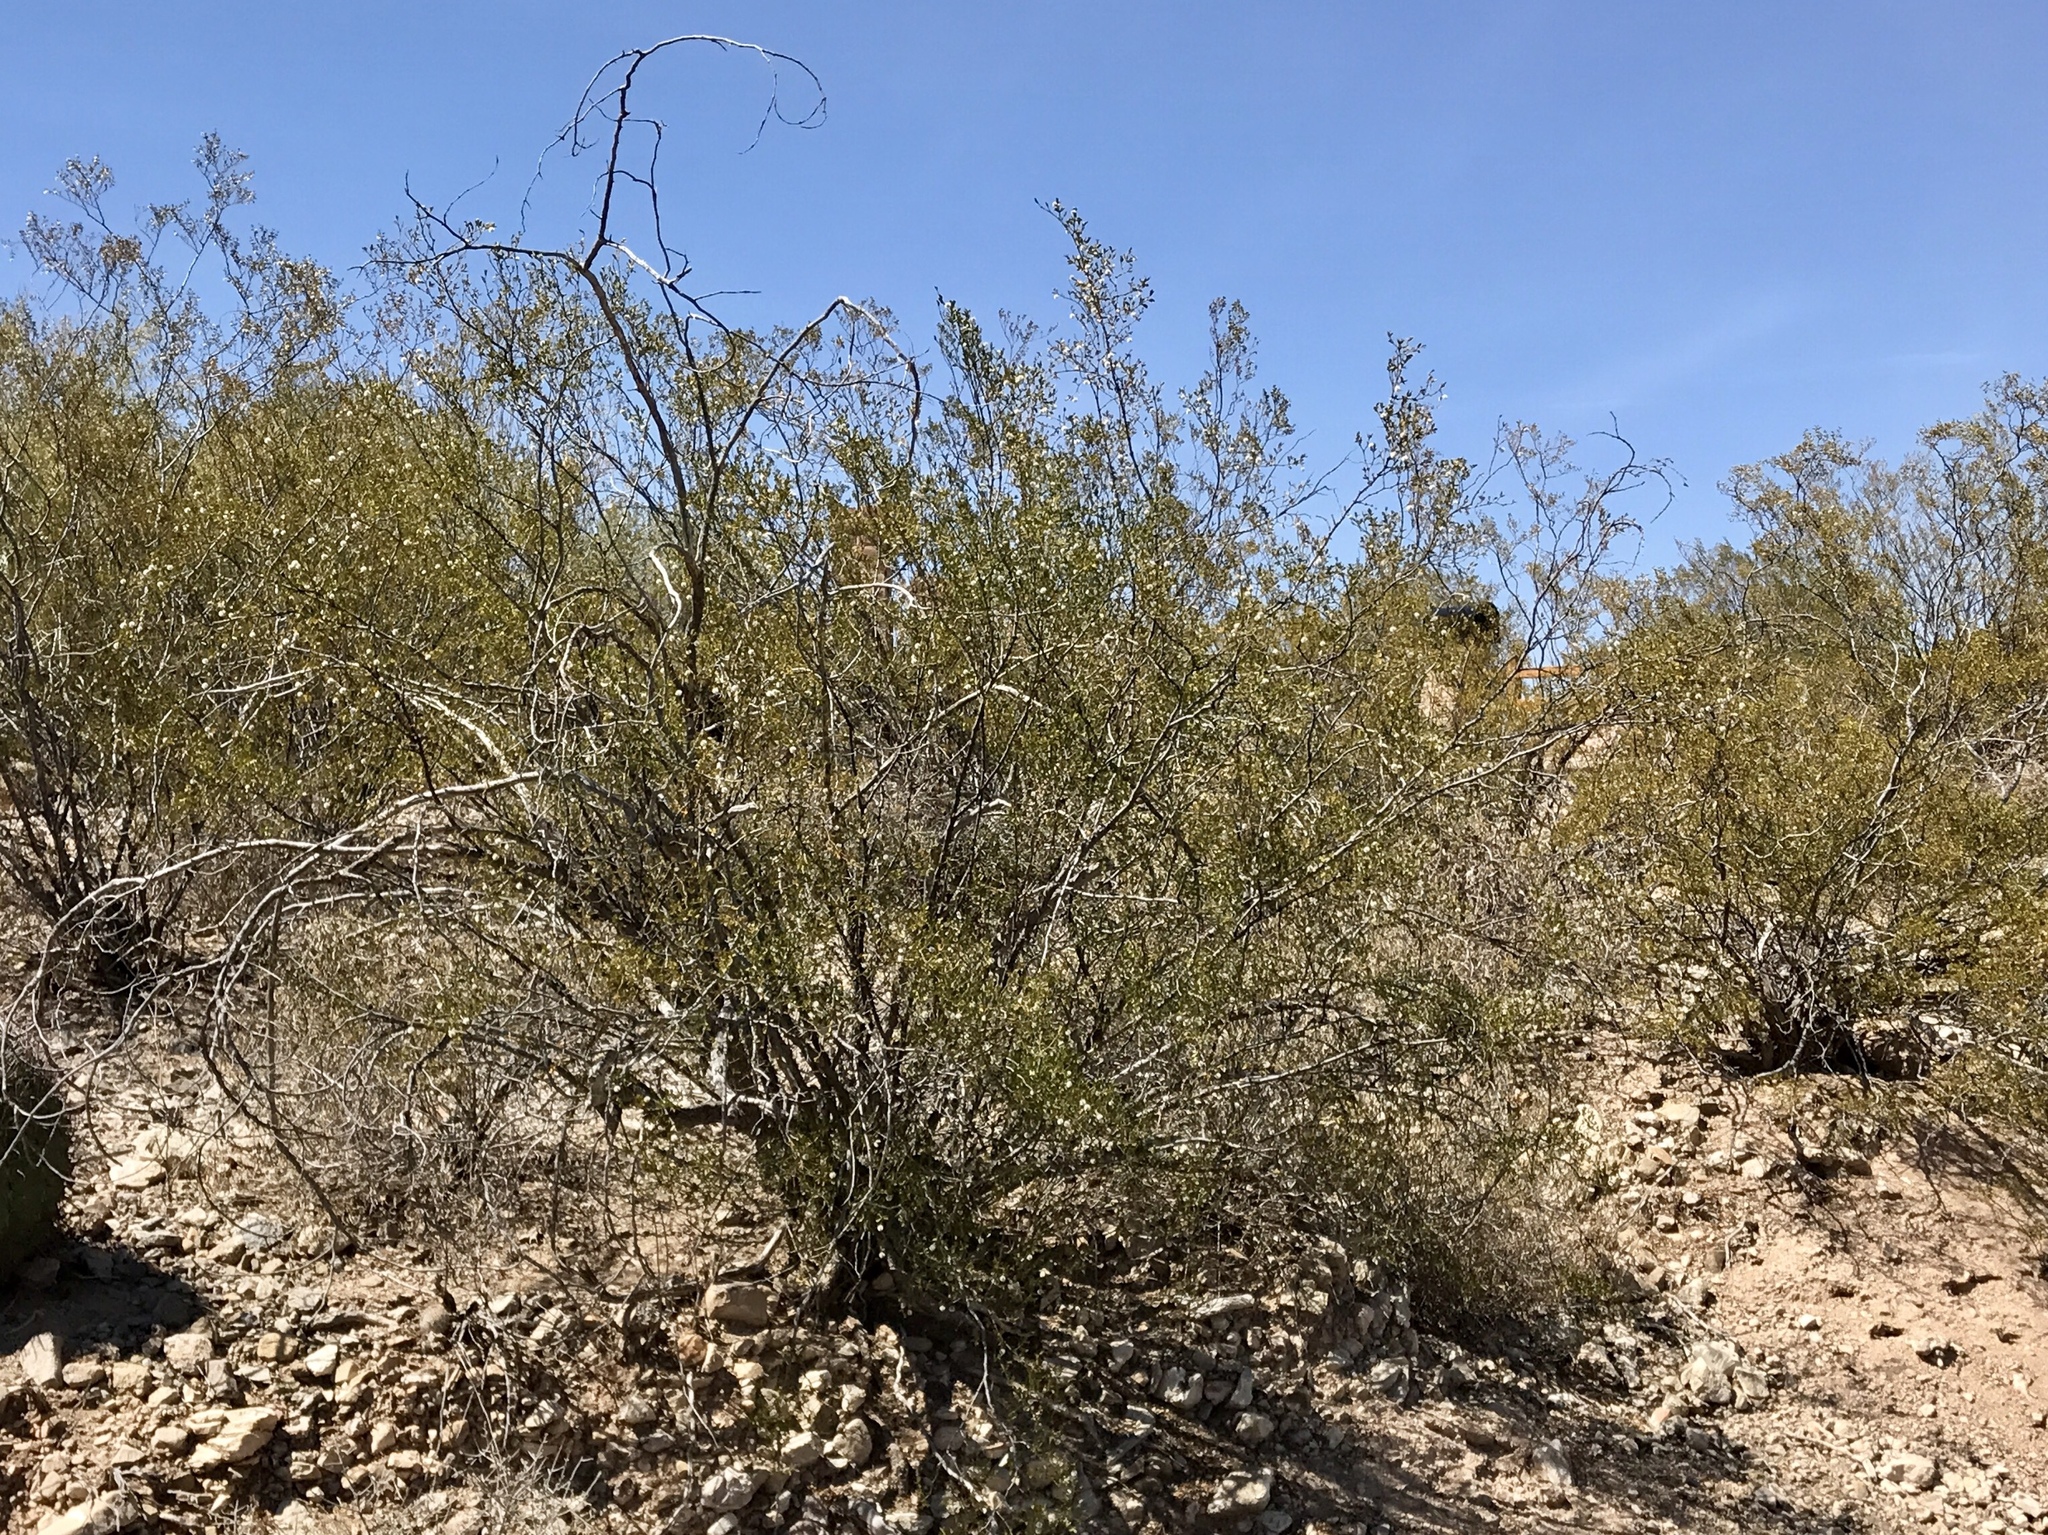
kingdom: Plantae
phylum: Tracheophyta
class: Magnoliopsida
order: Zygophyllales
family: Zygophyllaceae
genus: Larrea
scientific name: Larrea tridentata
